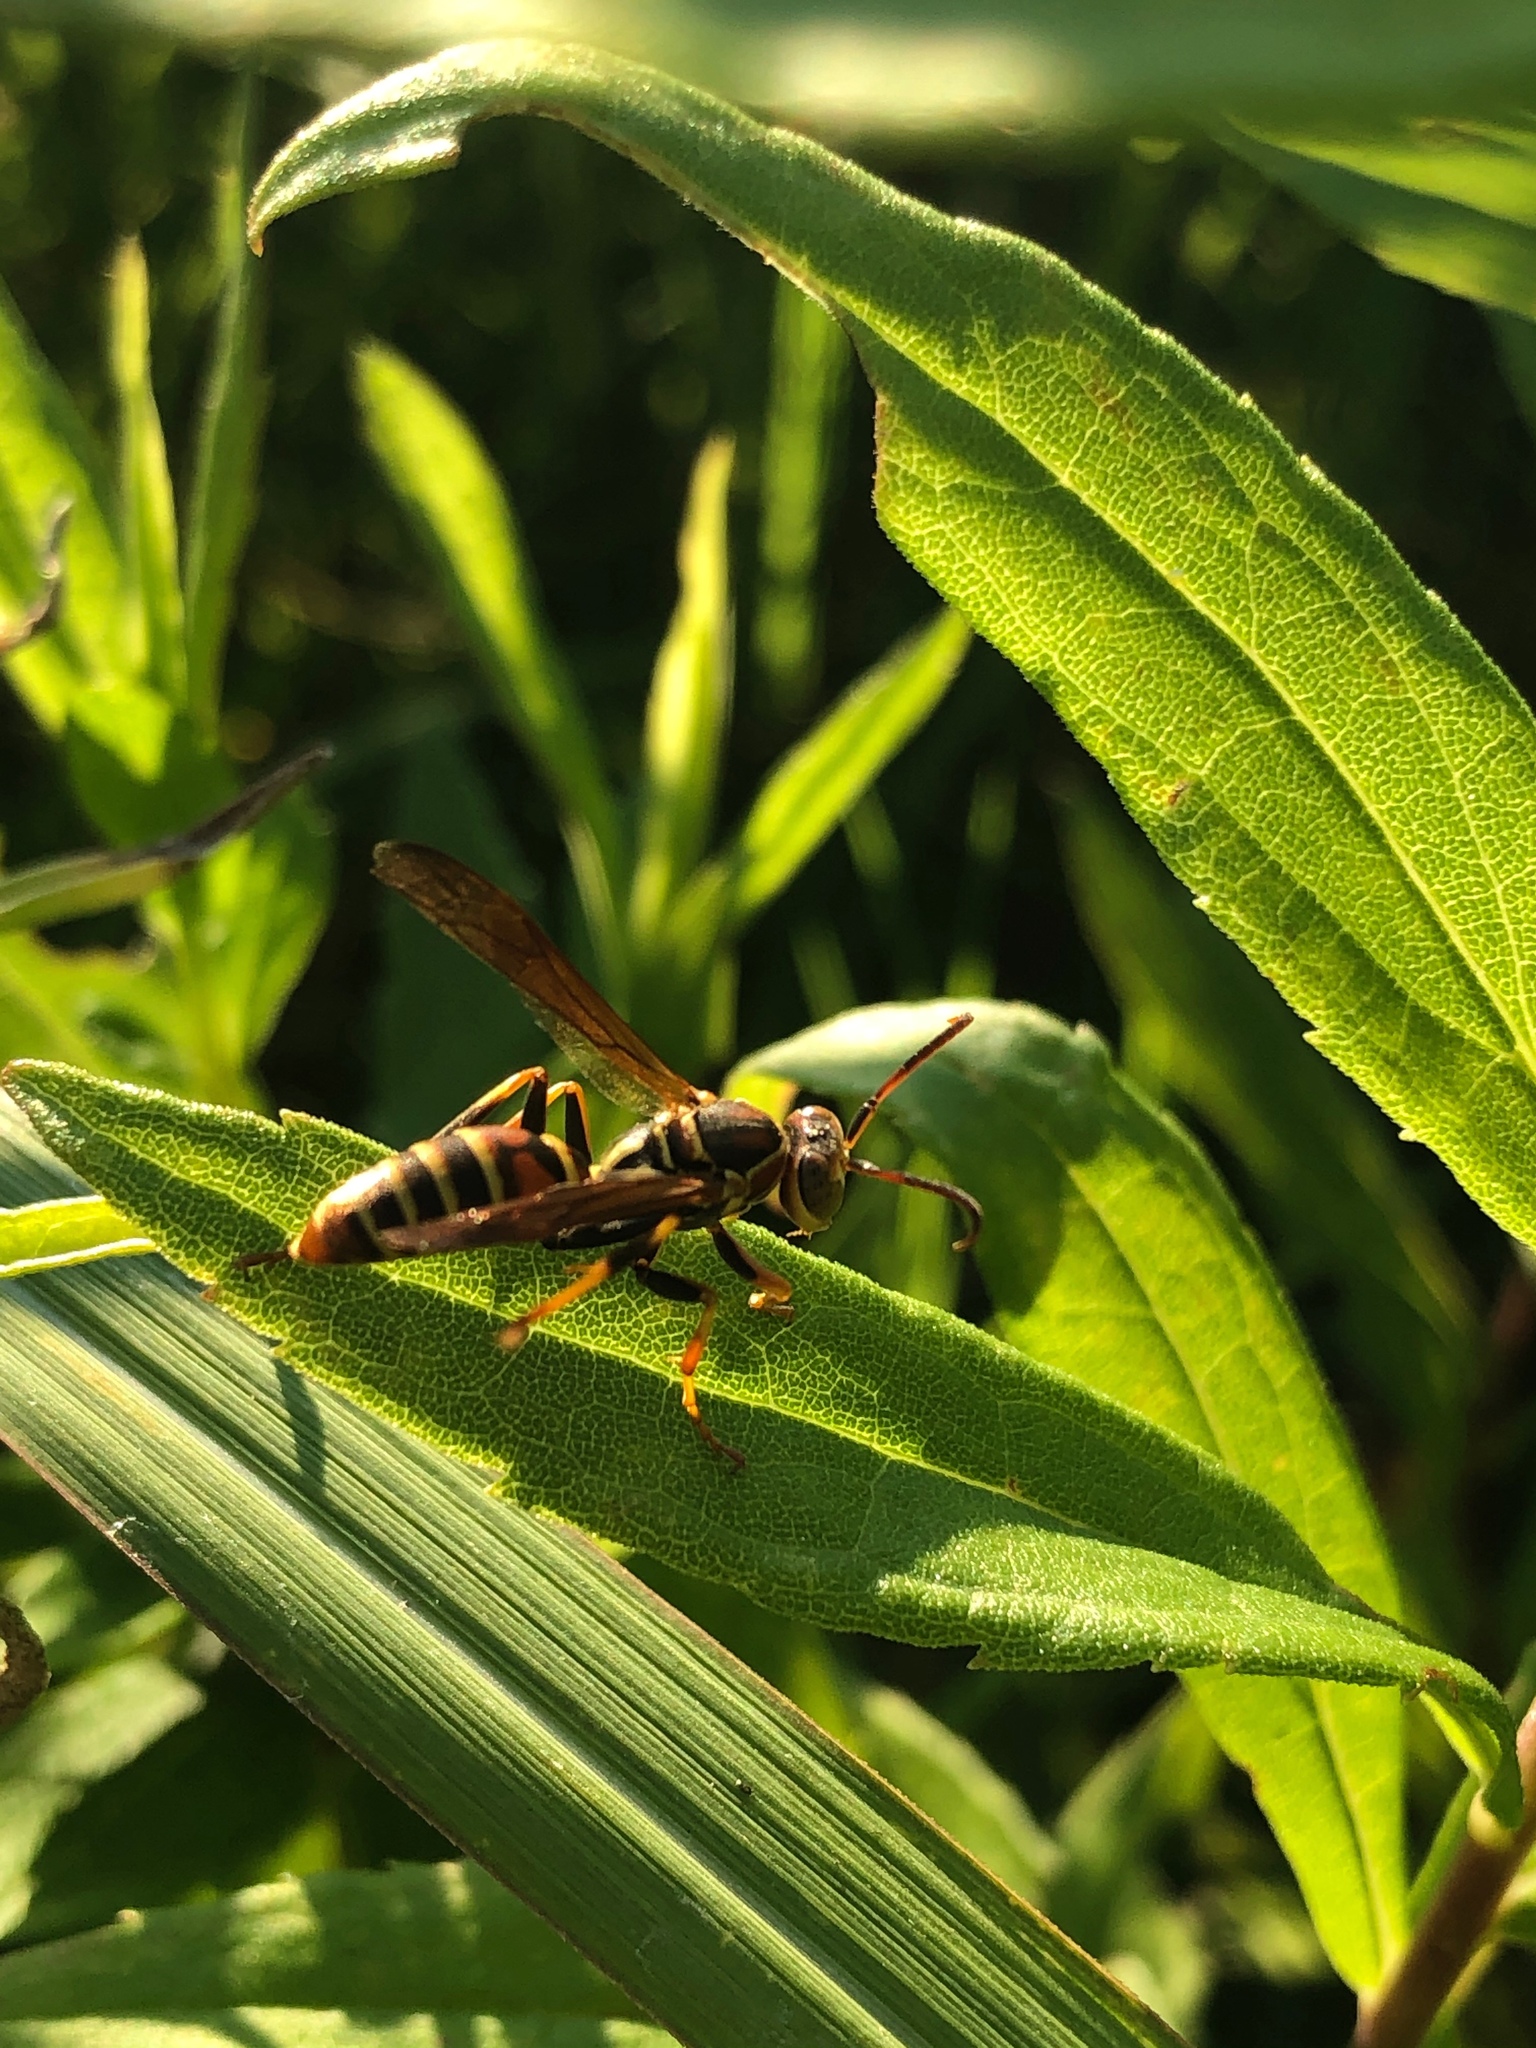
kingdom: Animalia
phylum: Arthropoda
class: Insecta
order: Hymenoptera
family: Eumenidae
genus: Polistes
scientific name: Polistes dorsalis
